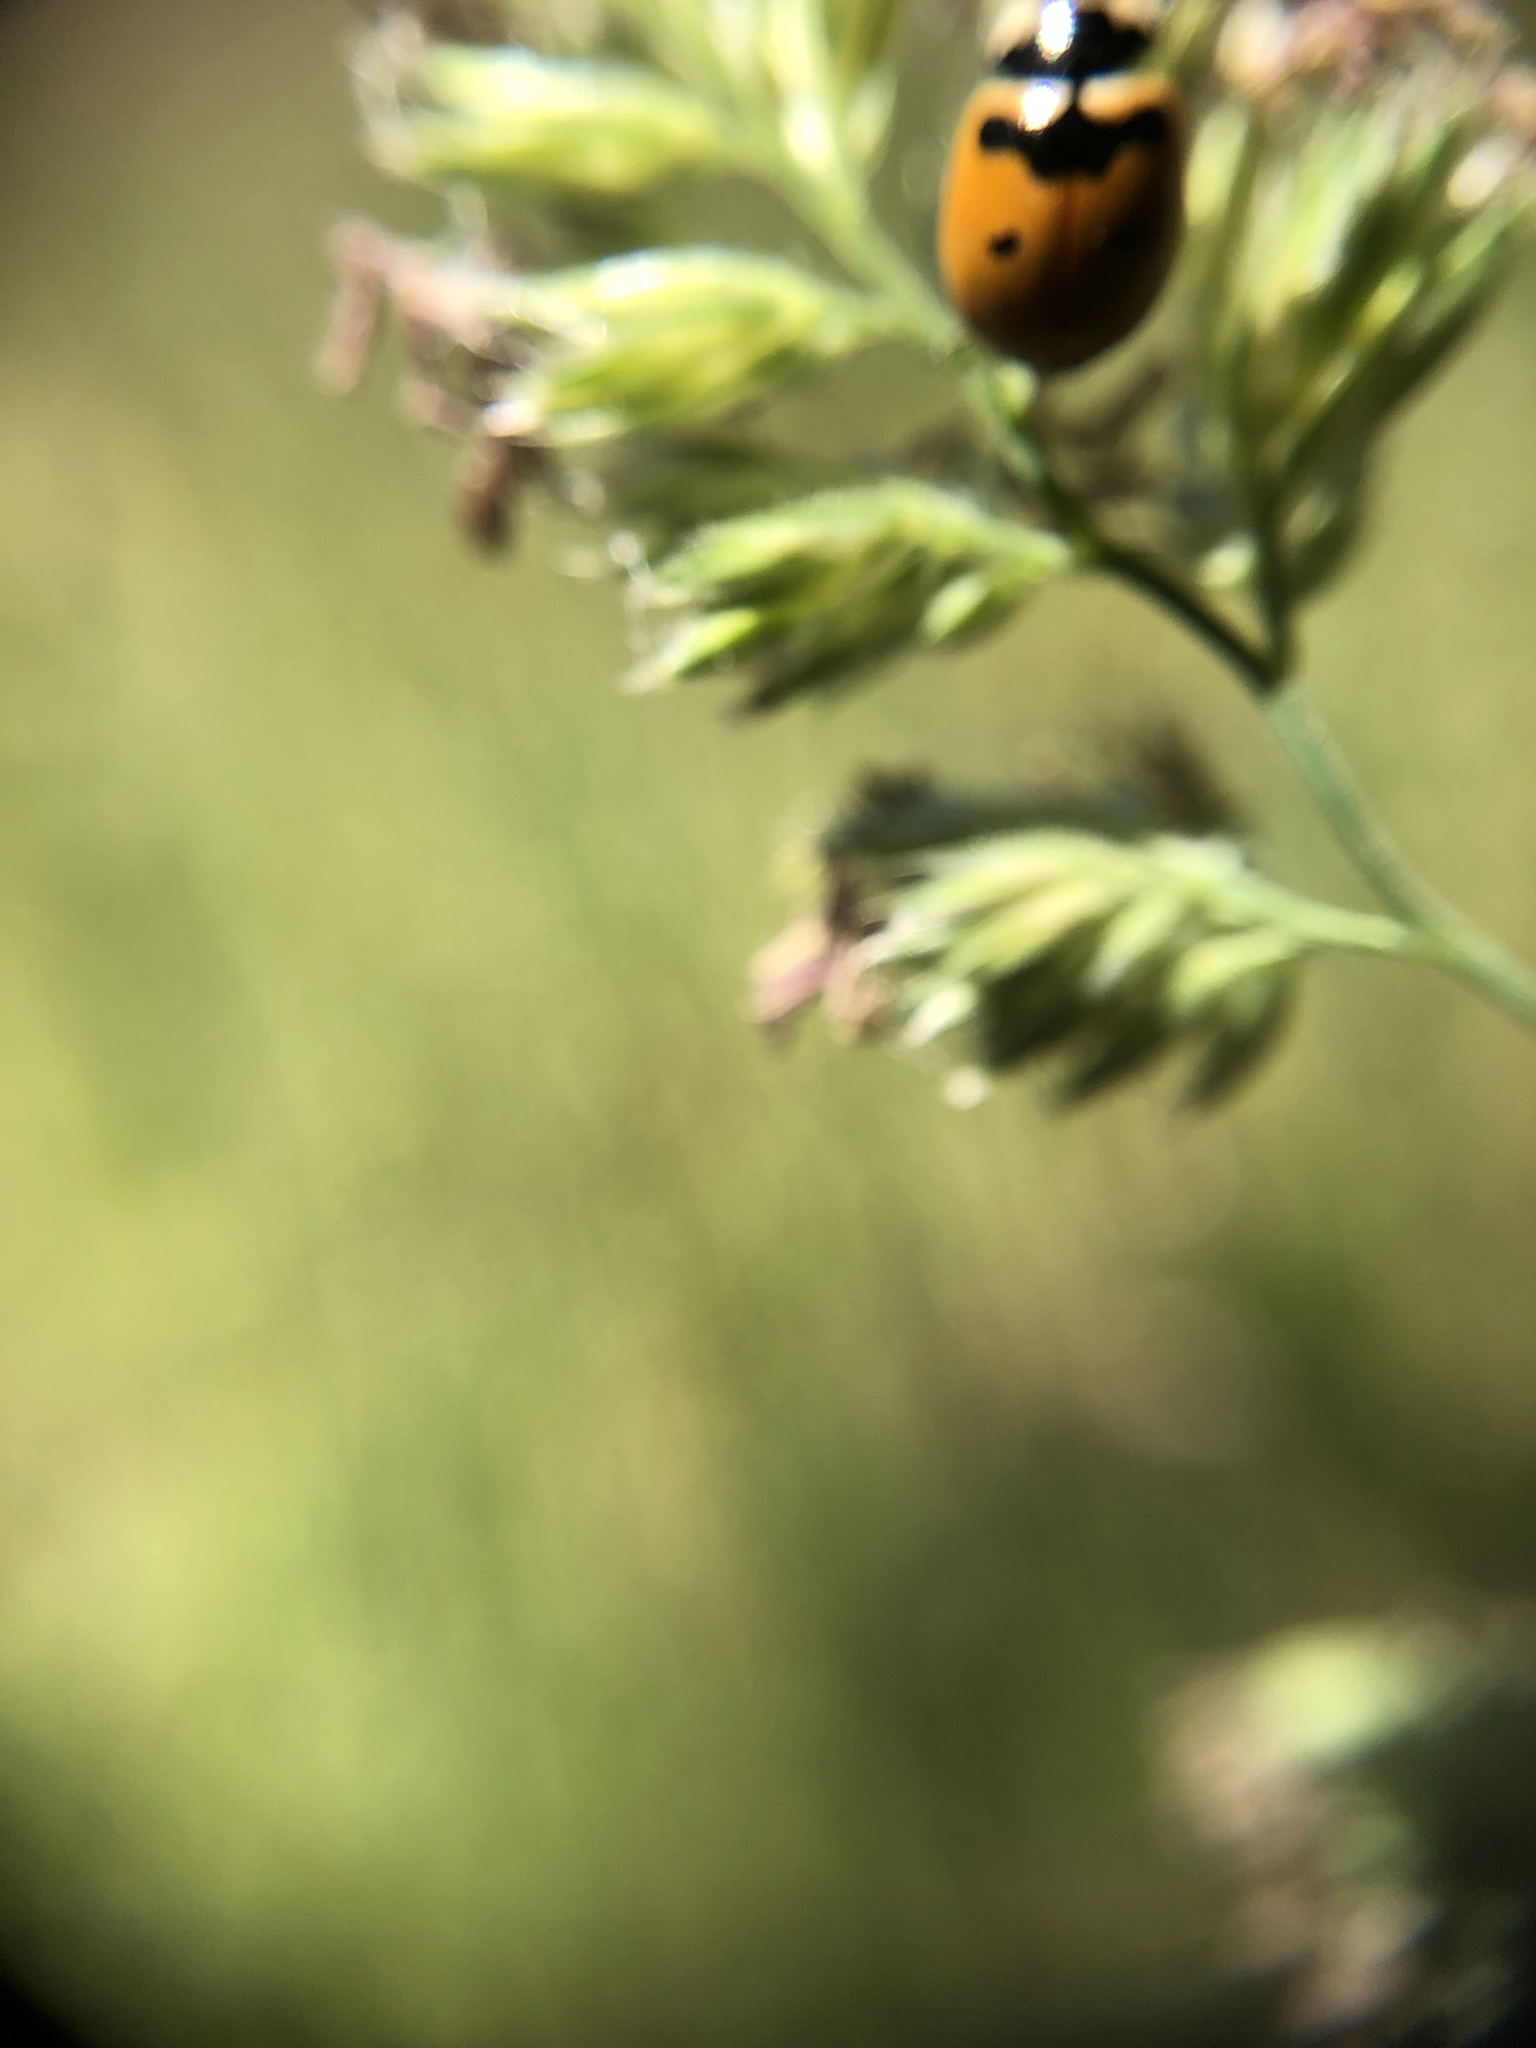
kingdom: Animalia
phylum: Arthropoda
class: Insecta
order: Coleoptera
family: Coccinellidae
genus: Coccinella
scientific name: Coccinella trifasciata
